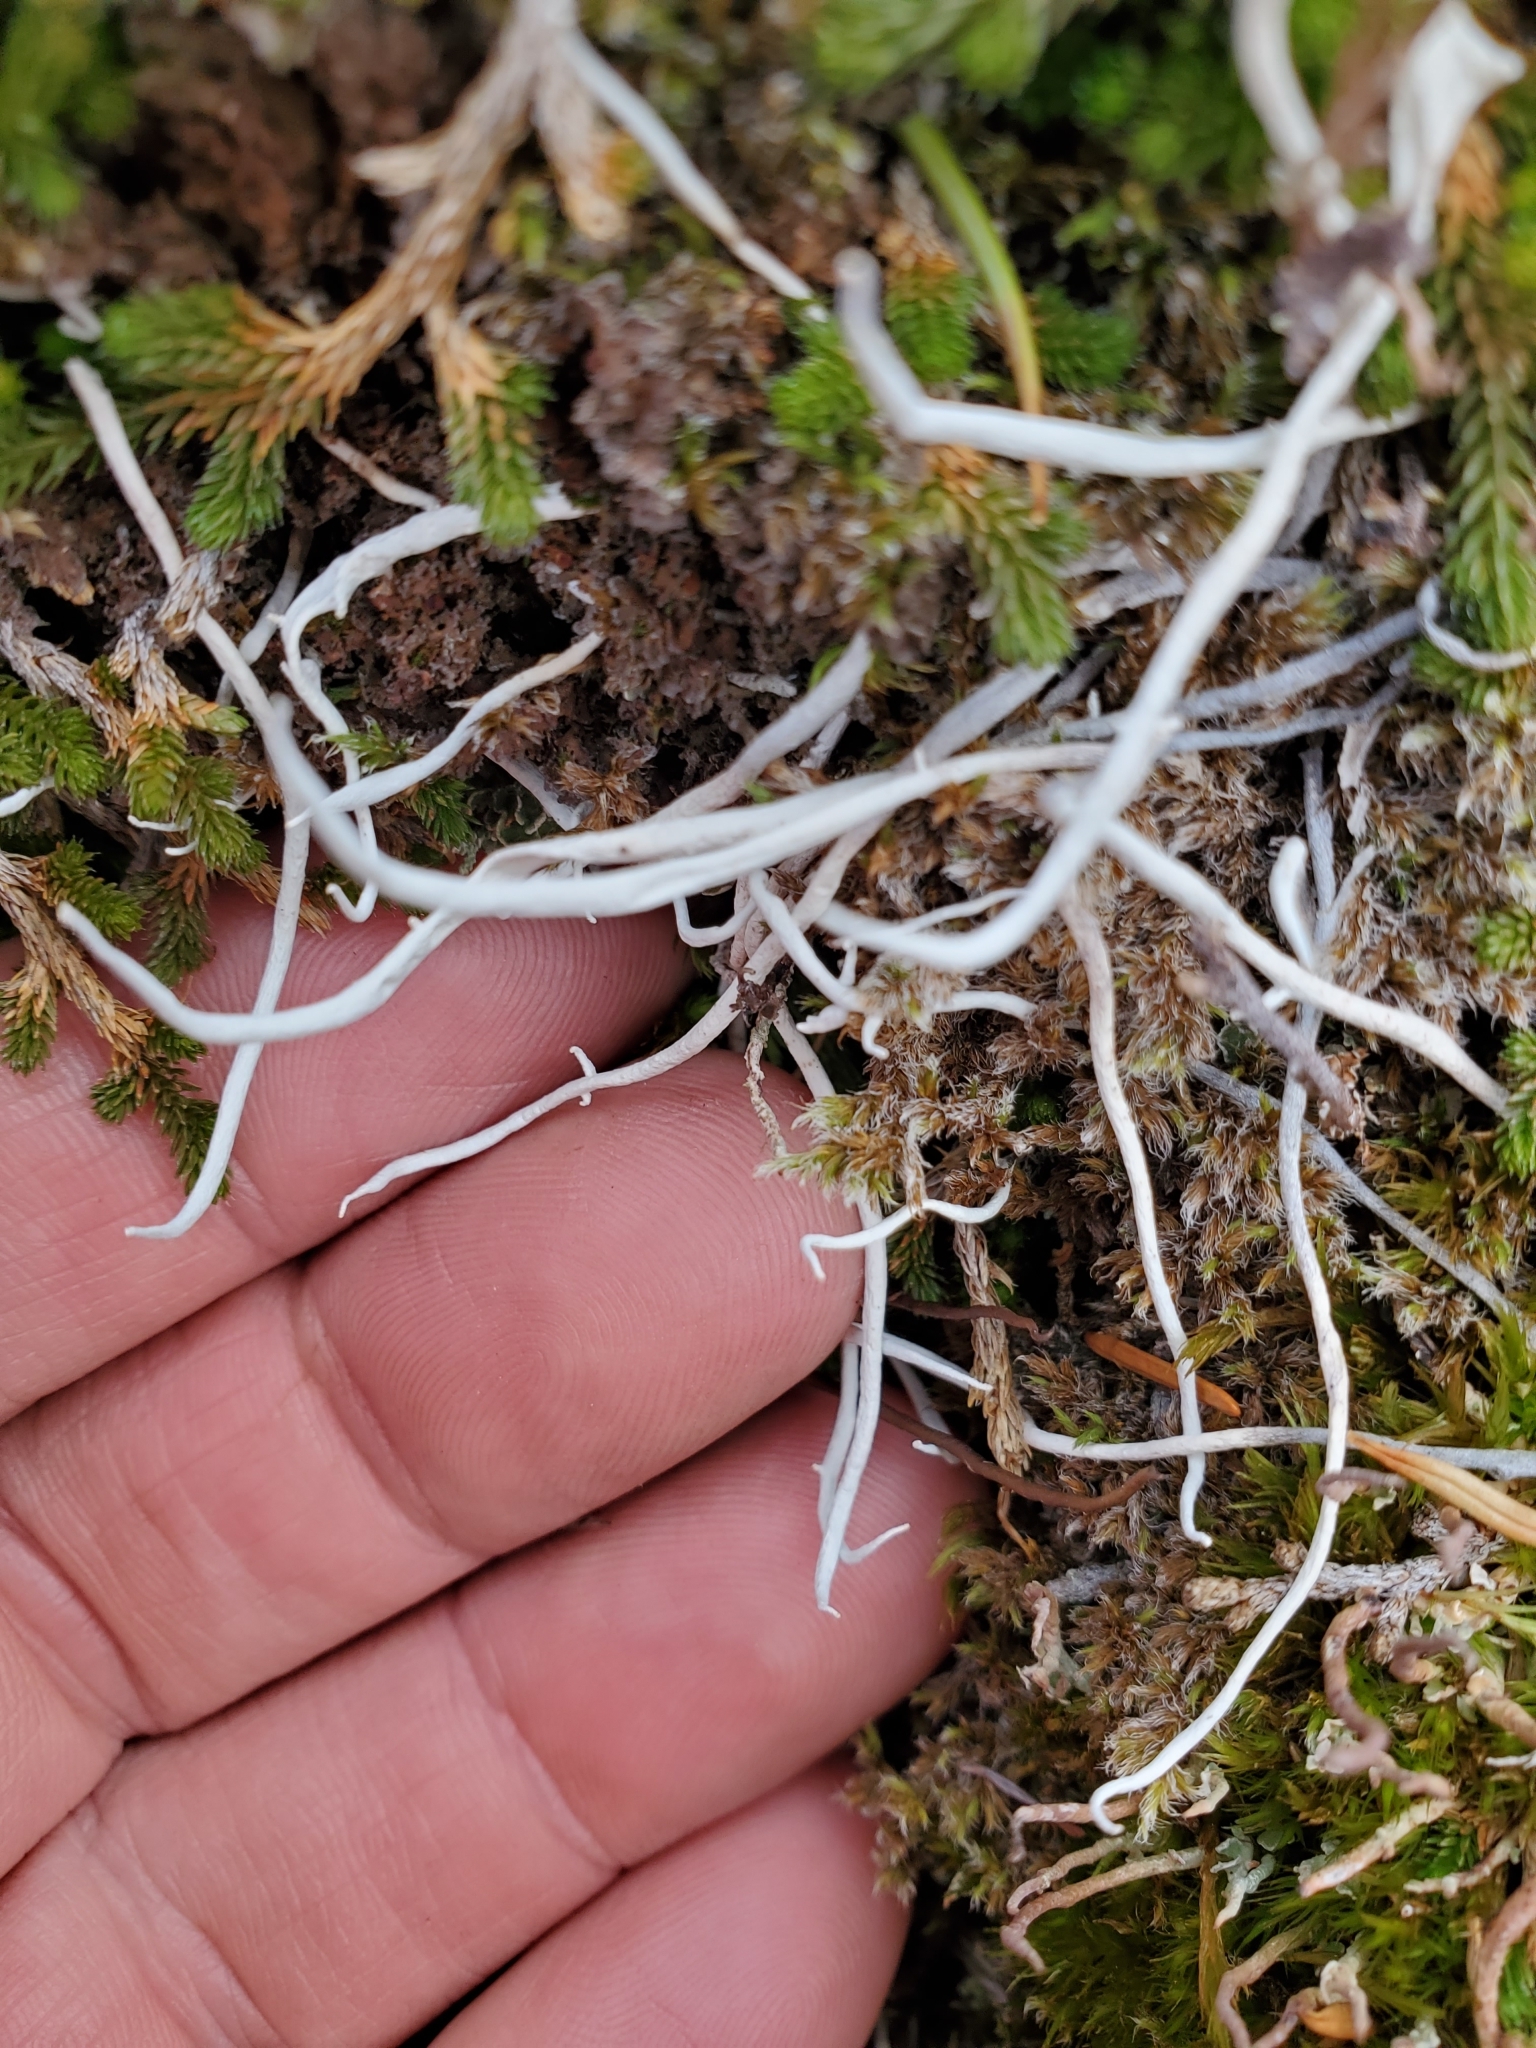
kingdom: Fungi
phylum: Ascomycota
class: Lecanoromycetes
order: Pertusariales
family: Icmadophilaceae
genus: Thamnolia
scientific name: Thamnolia vermicularis
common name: Whiteworm lichen
